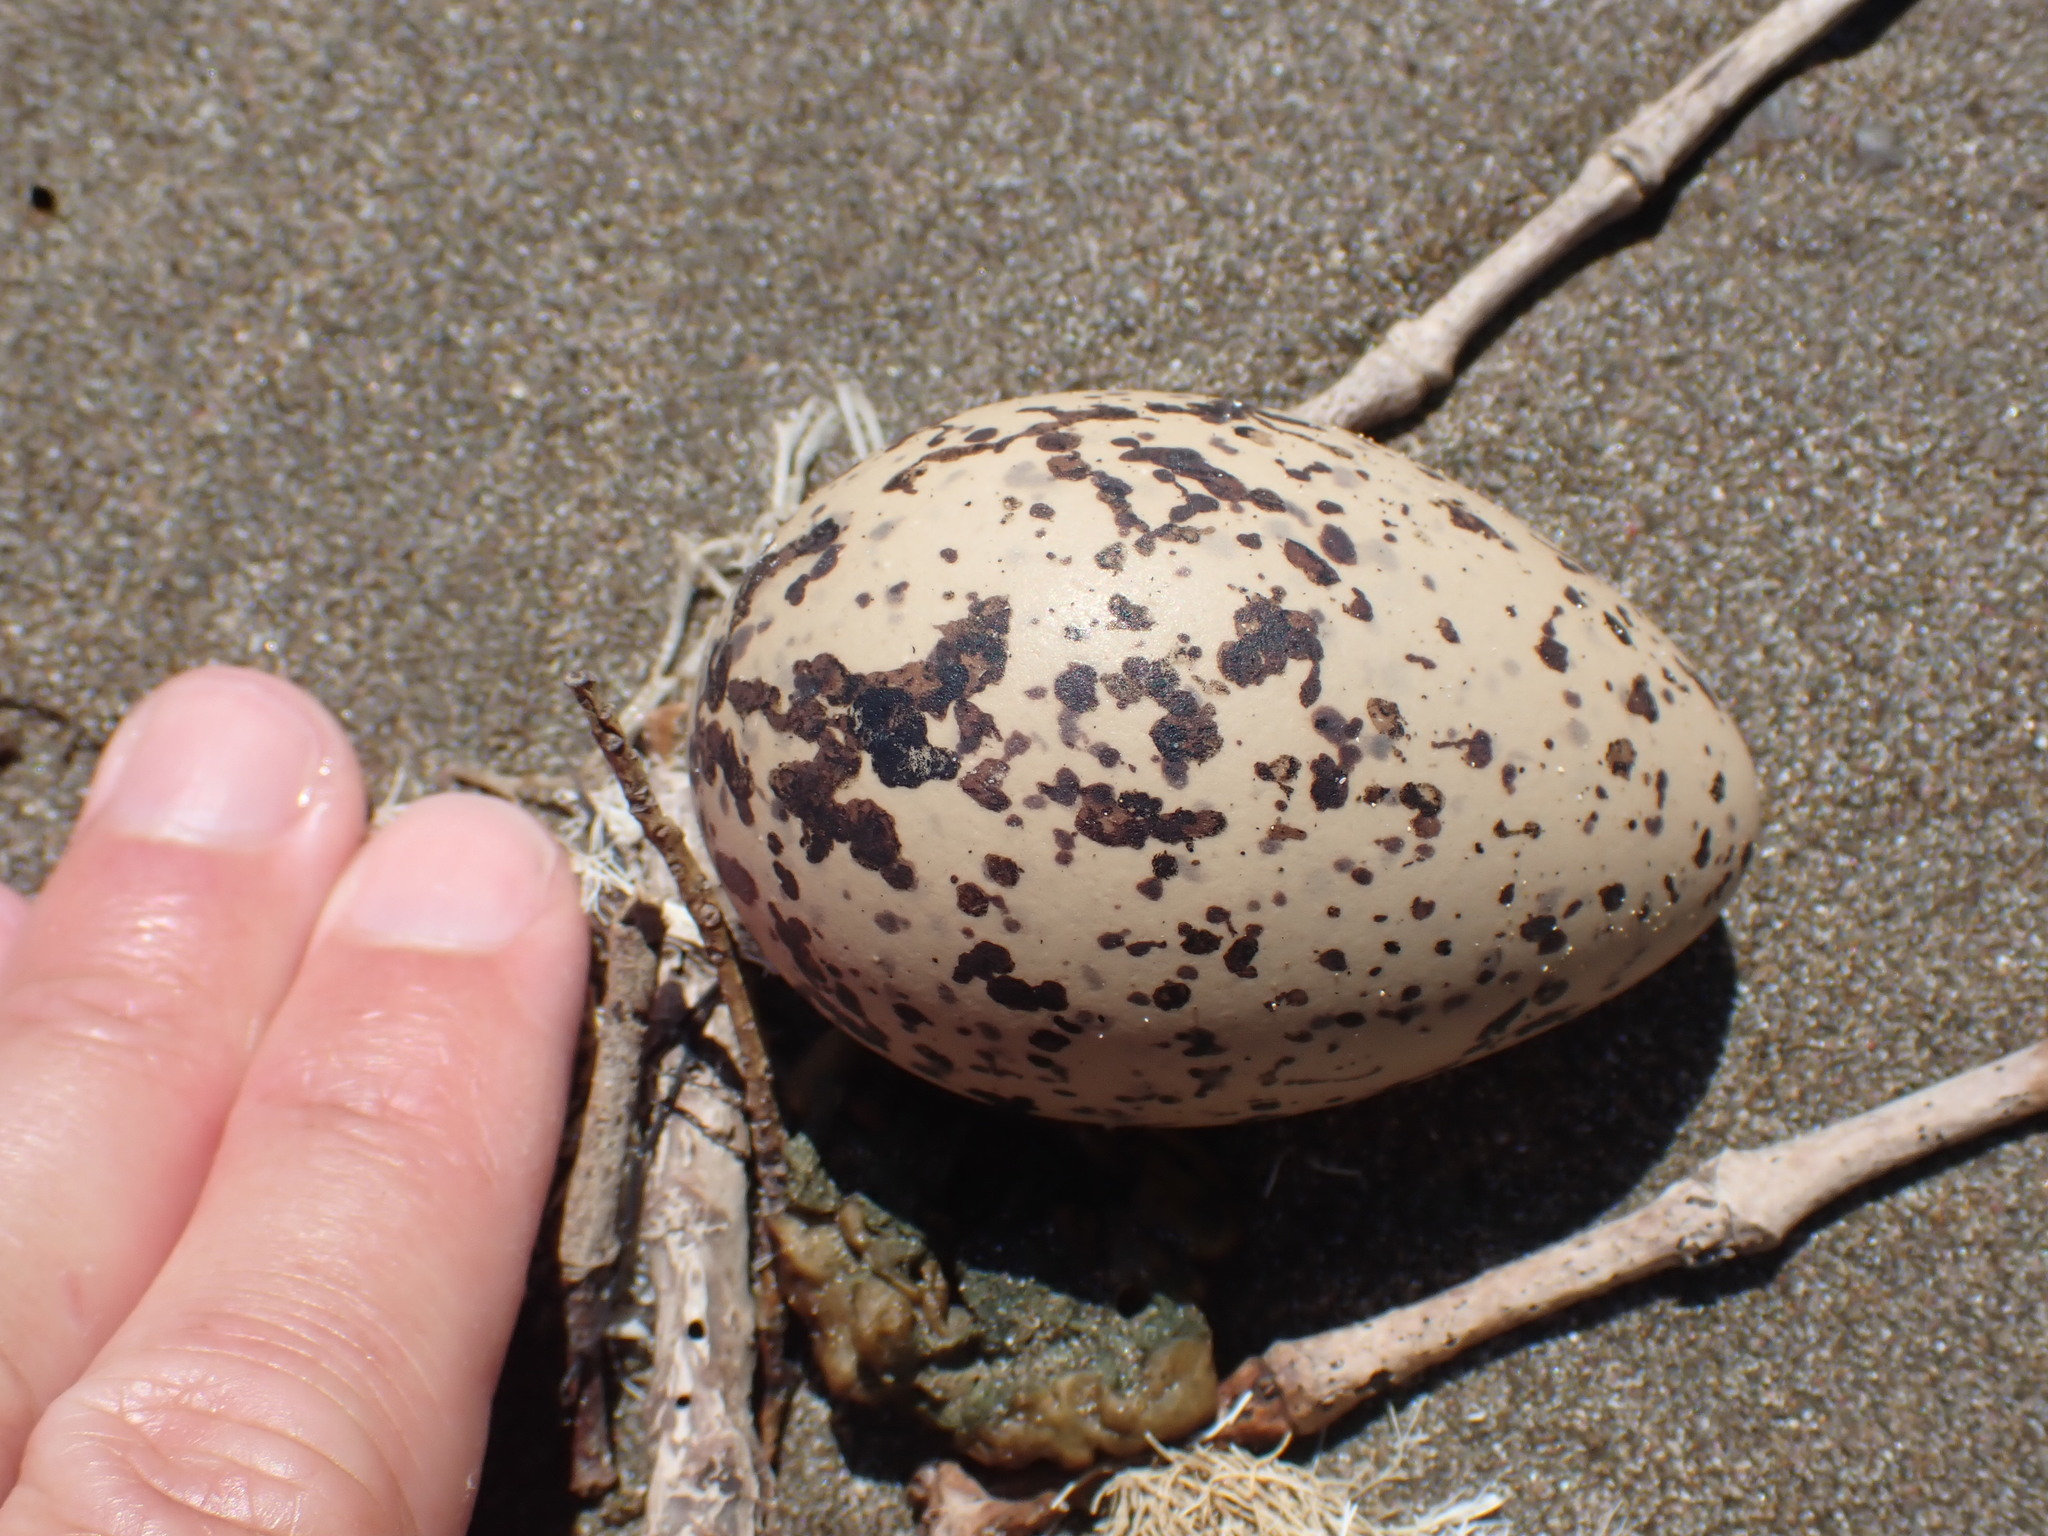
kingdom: Animalia
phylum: Chordata
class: Aves
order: Charadriiformes
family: Haematopodidae
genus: Haematopus
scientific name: Haematopus unicolor
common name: Variable oystercatcher
